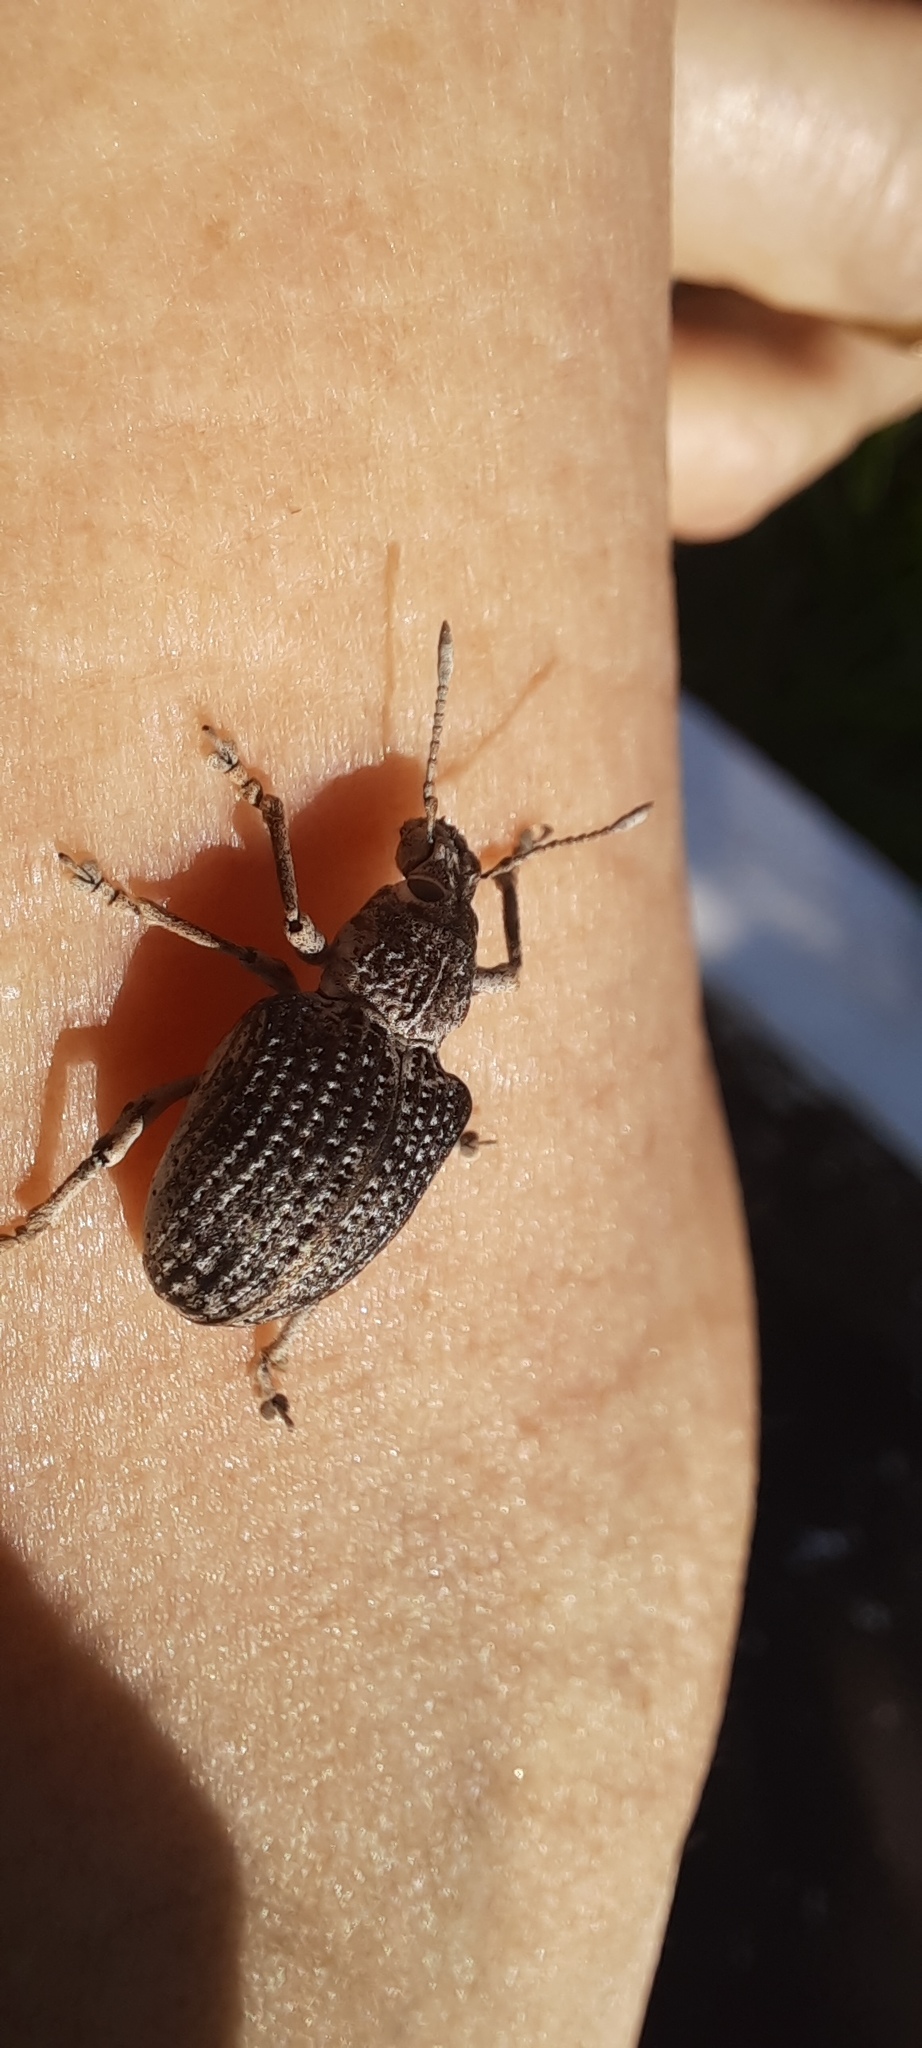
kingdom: Animalia
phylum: Arthropoda
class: Insecta
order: Coleoptera
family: Curculionidae
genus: Cydianerus
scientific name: Cydianerus latruncularius
